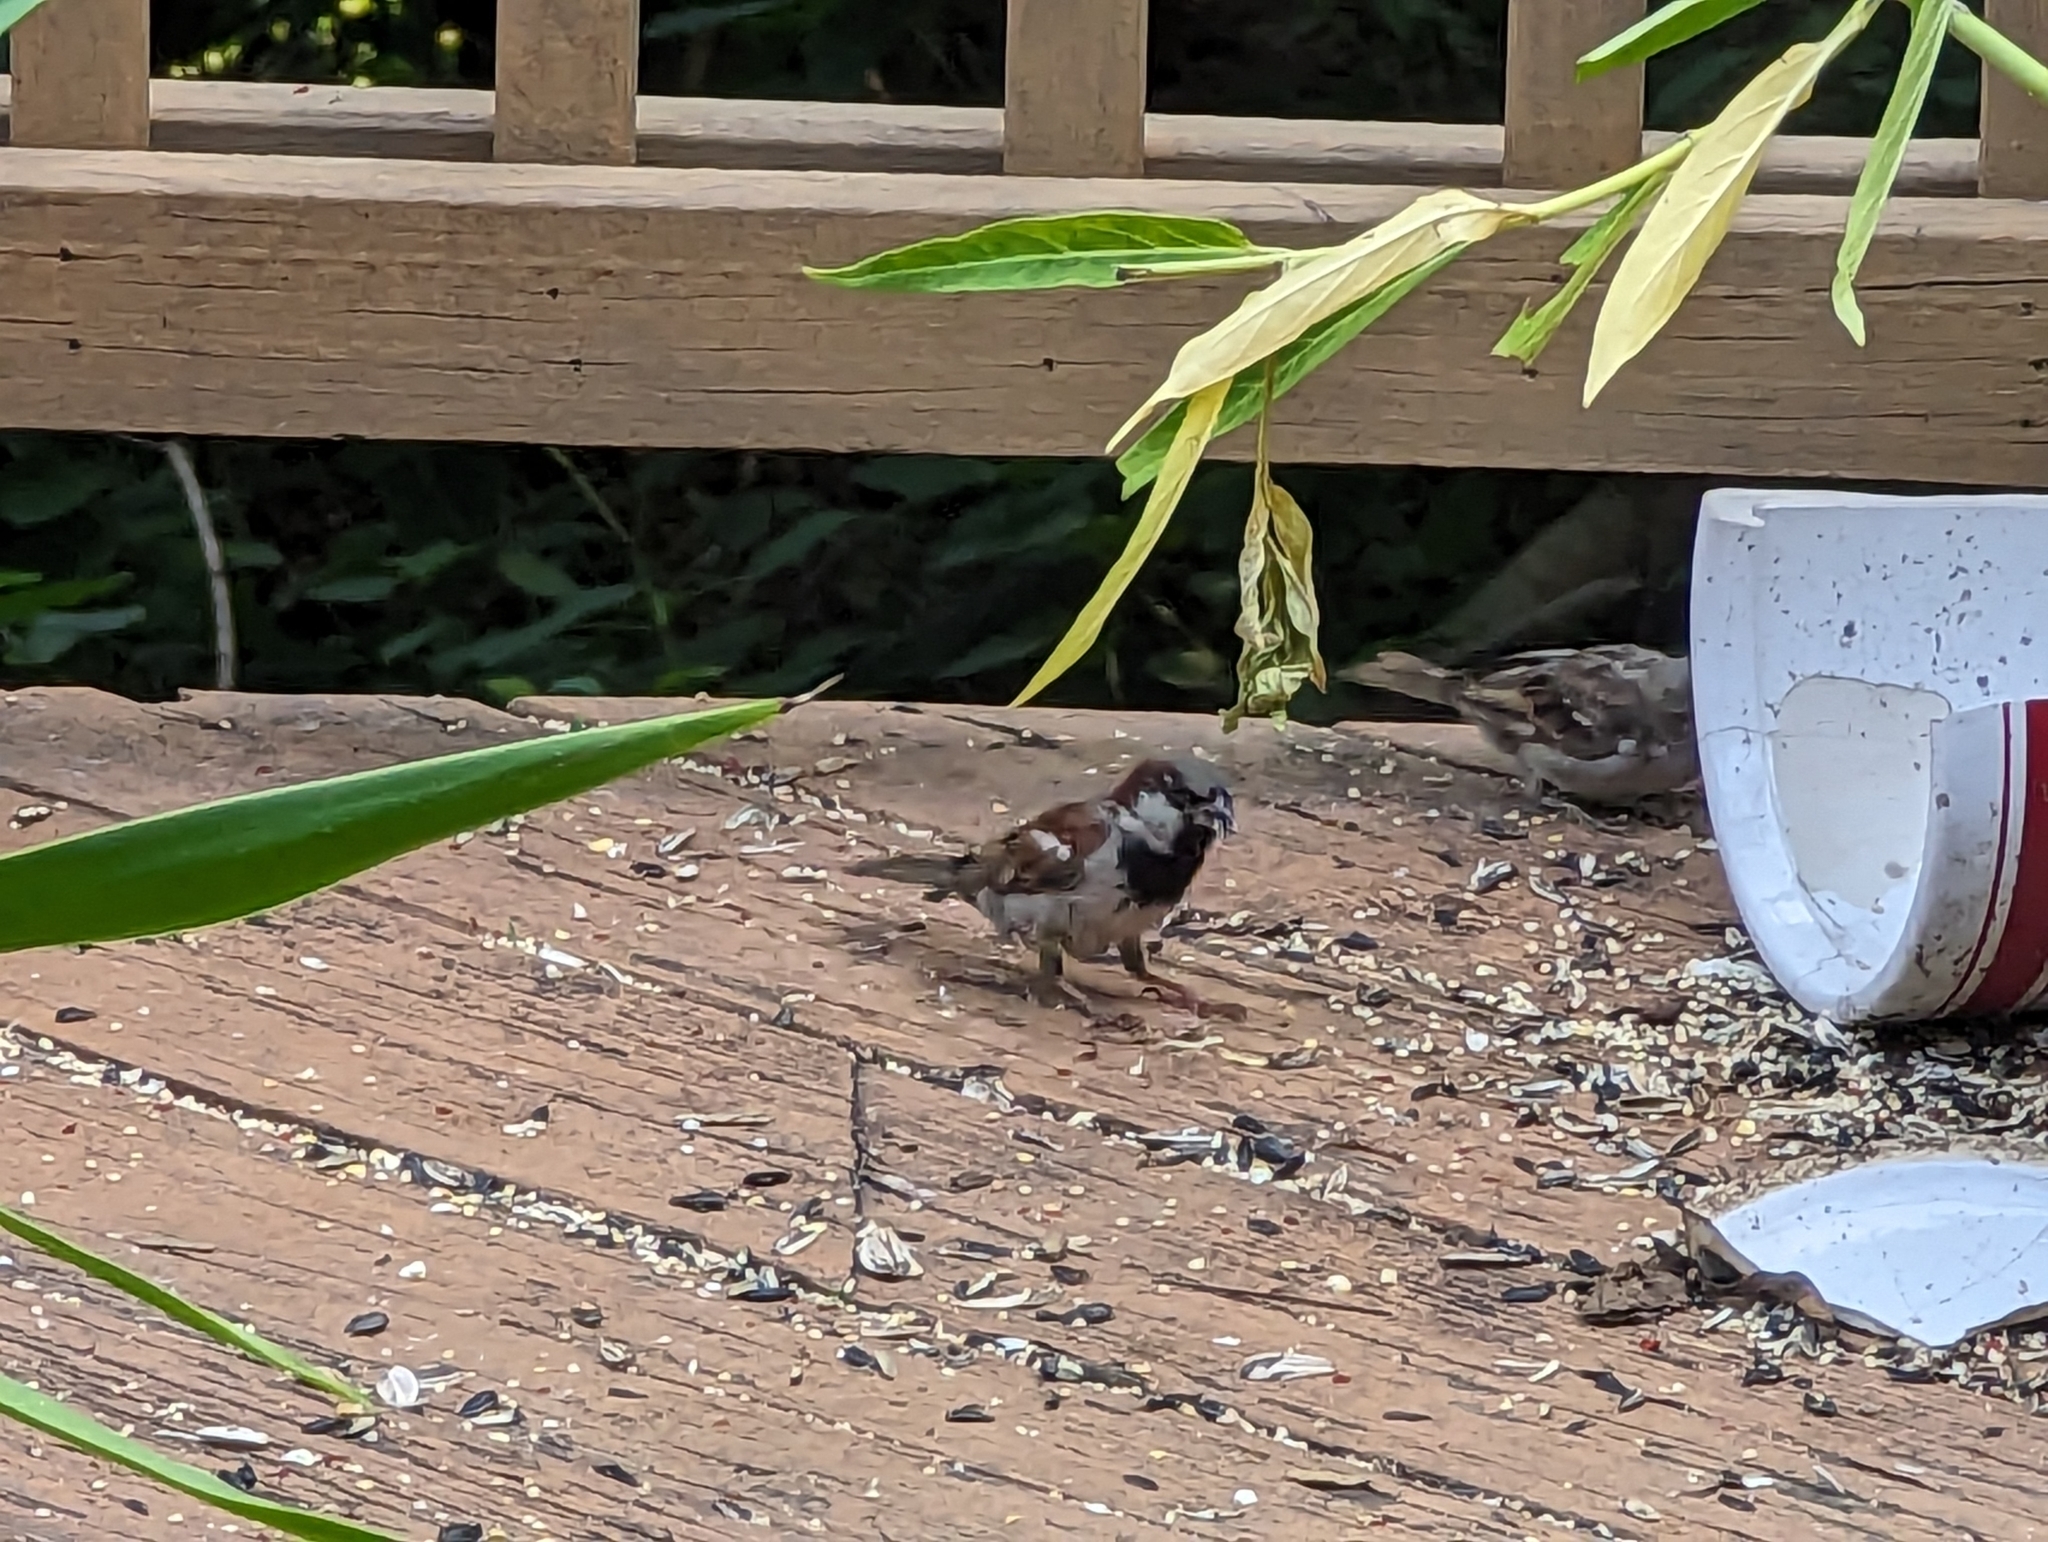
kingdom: Animalia
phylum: Chordata
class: Aves
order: Passeriformes
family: Passeridae
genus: Passer
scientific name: Passer domesticus
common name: House sparrow
